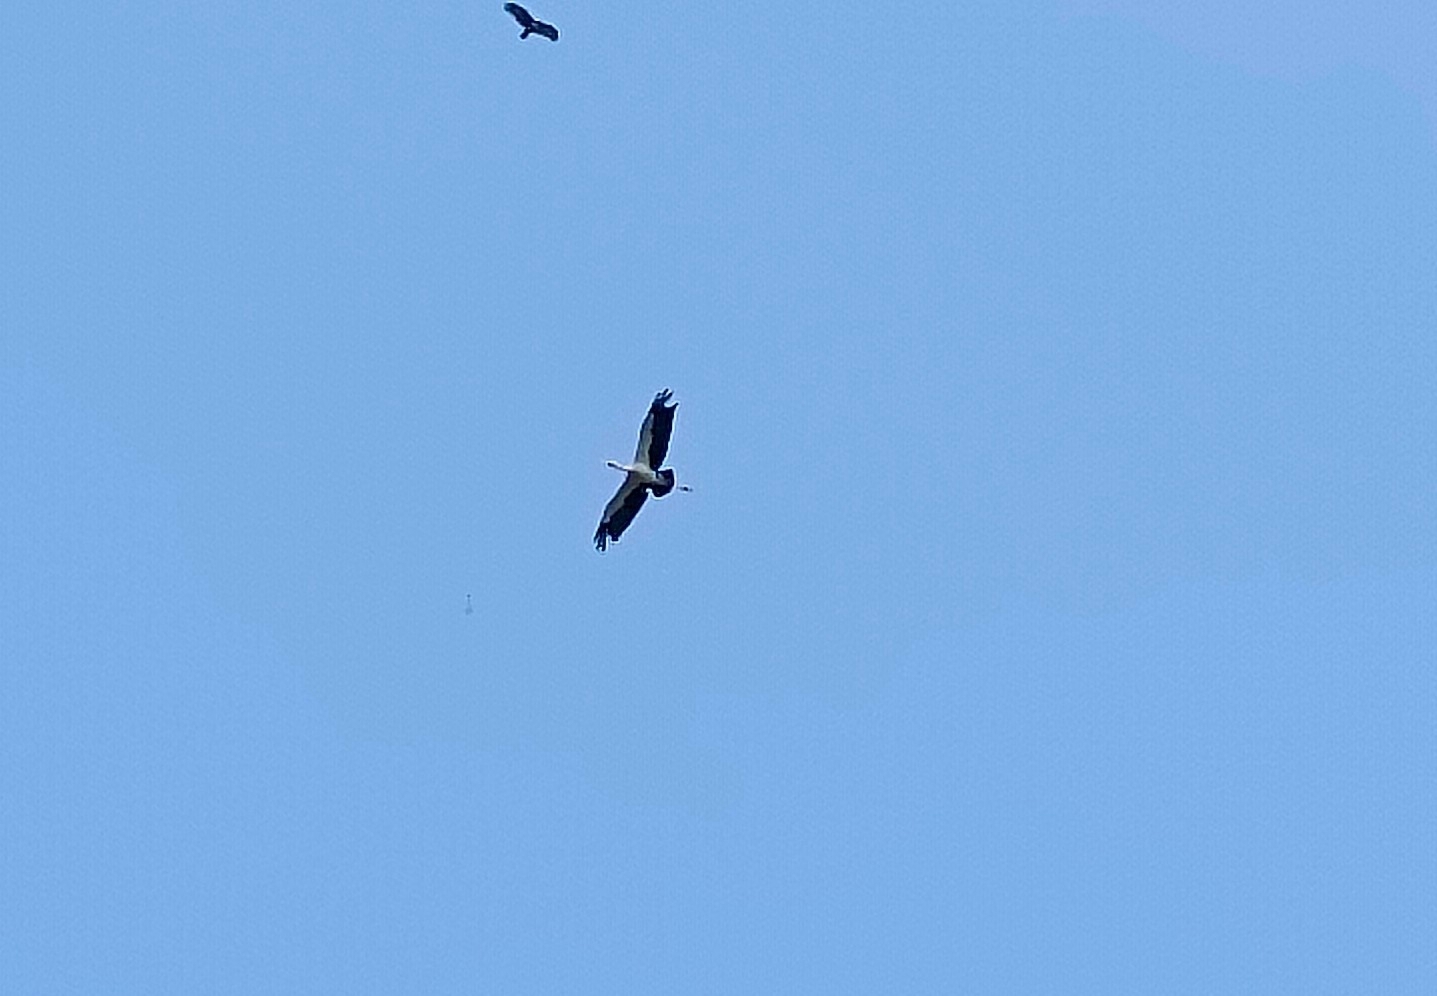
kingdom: Animalia
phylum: Chordata
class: Aves
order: Ciconiiformes
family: Ciconiidae
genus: Anastomus
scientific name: Anastomus oscitans
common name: Asian openbill
